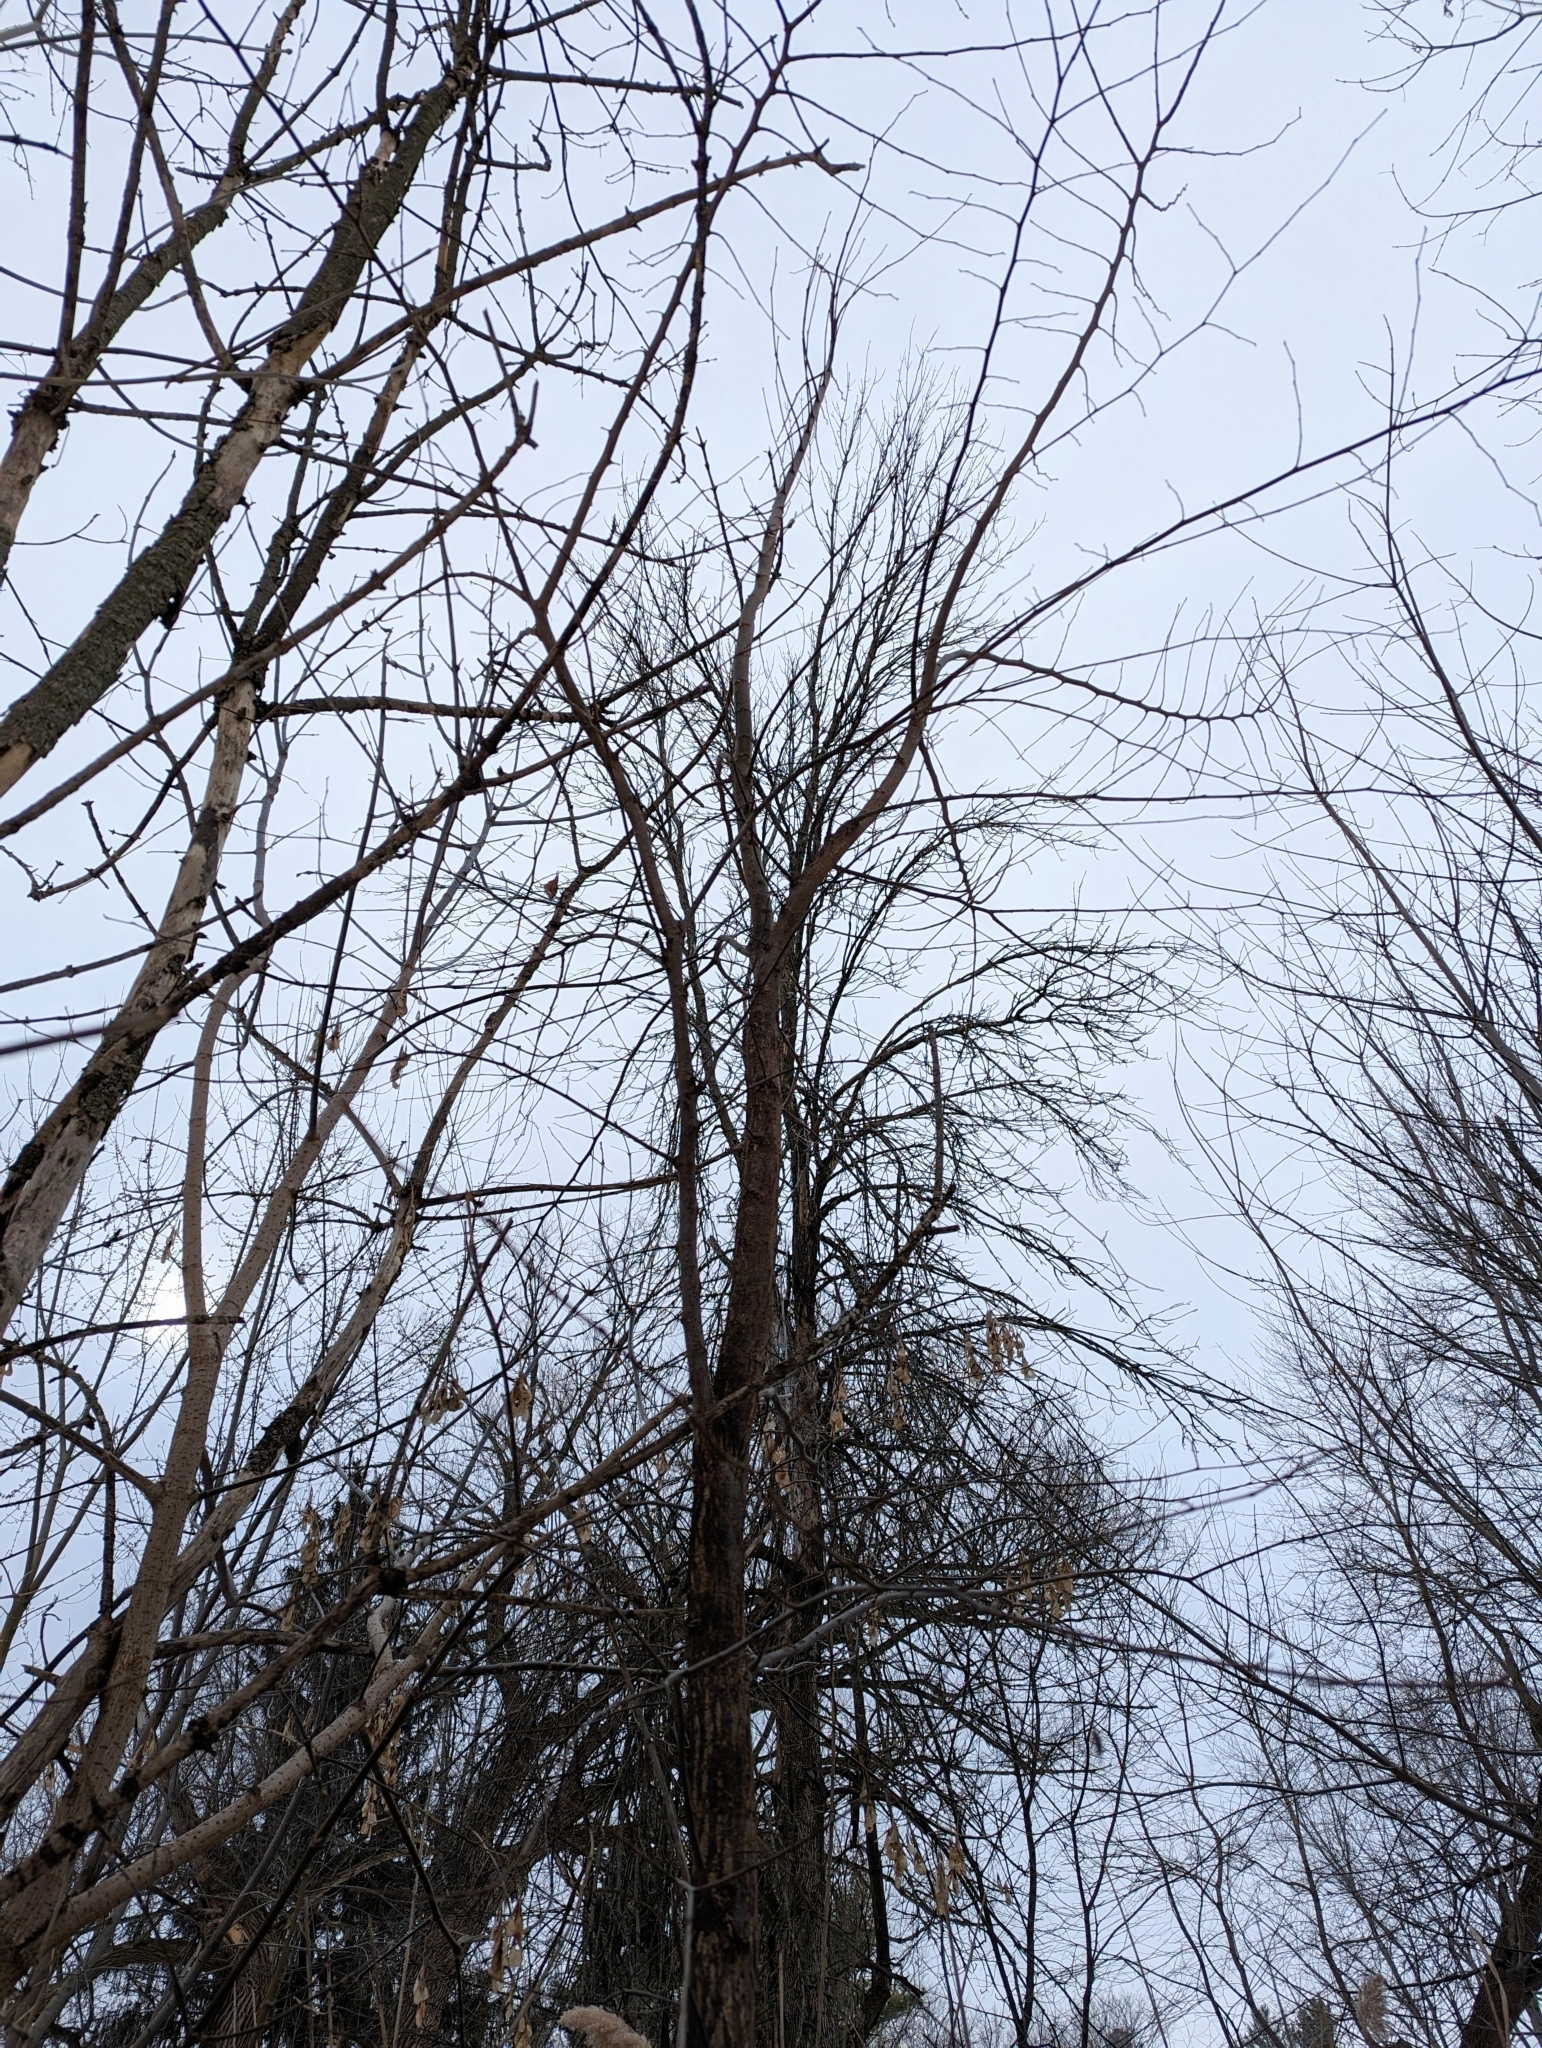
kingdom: Plantae
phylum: Tracheophyta
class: Magnoliopsida
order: Rosales
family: Ulmaceae
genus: Ulmus
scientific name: Ulmus americana
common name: American elm
